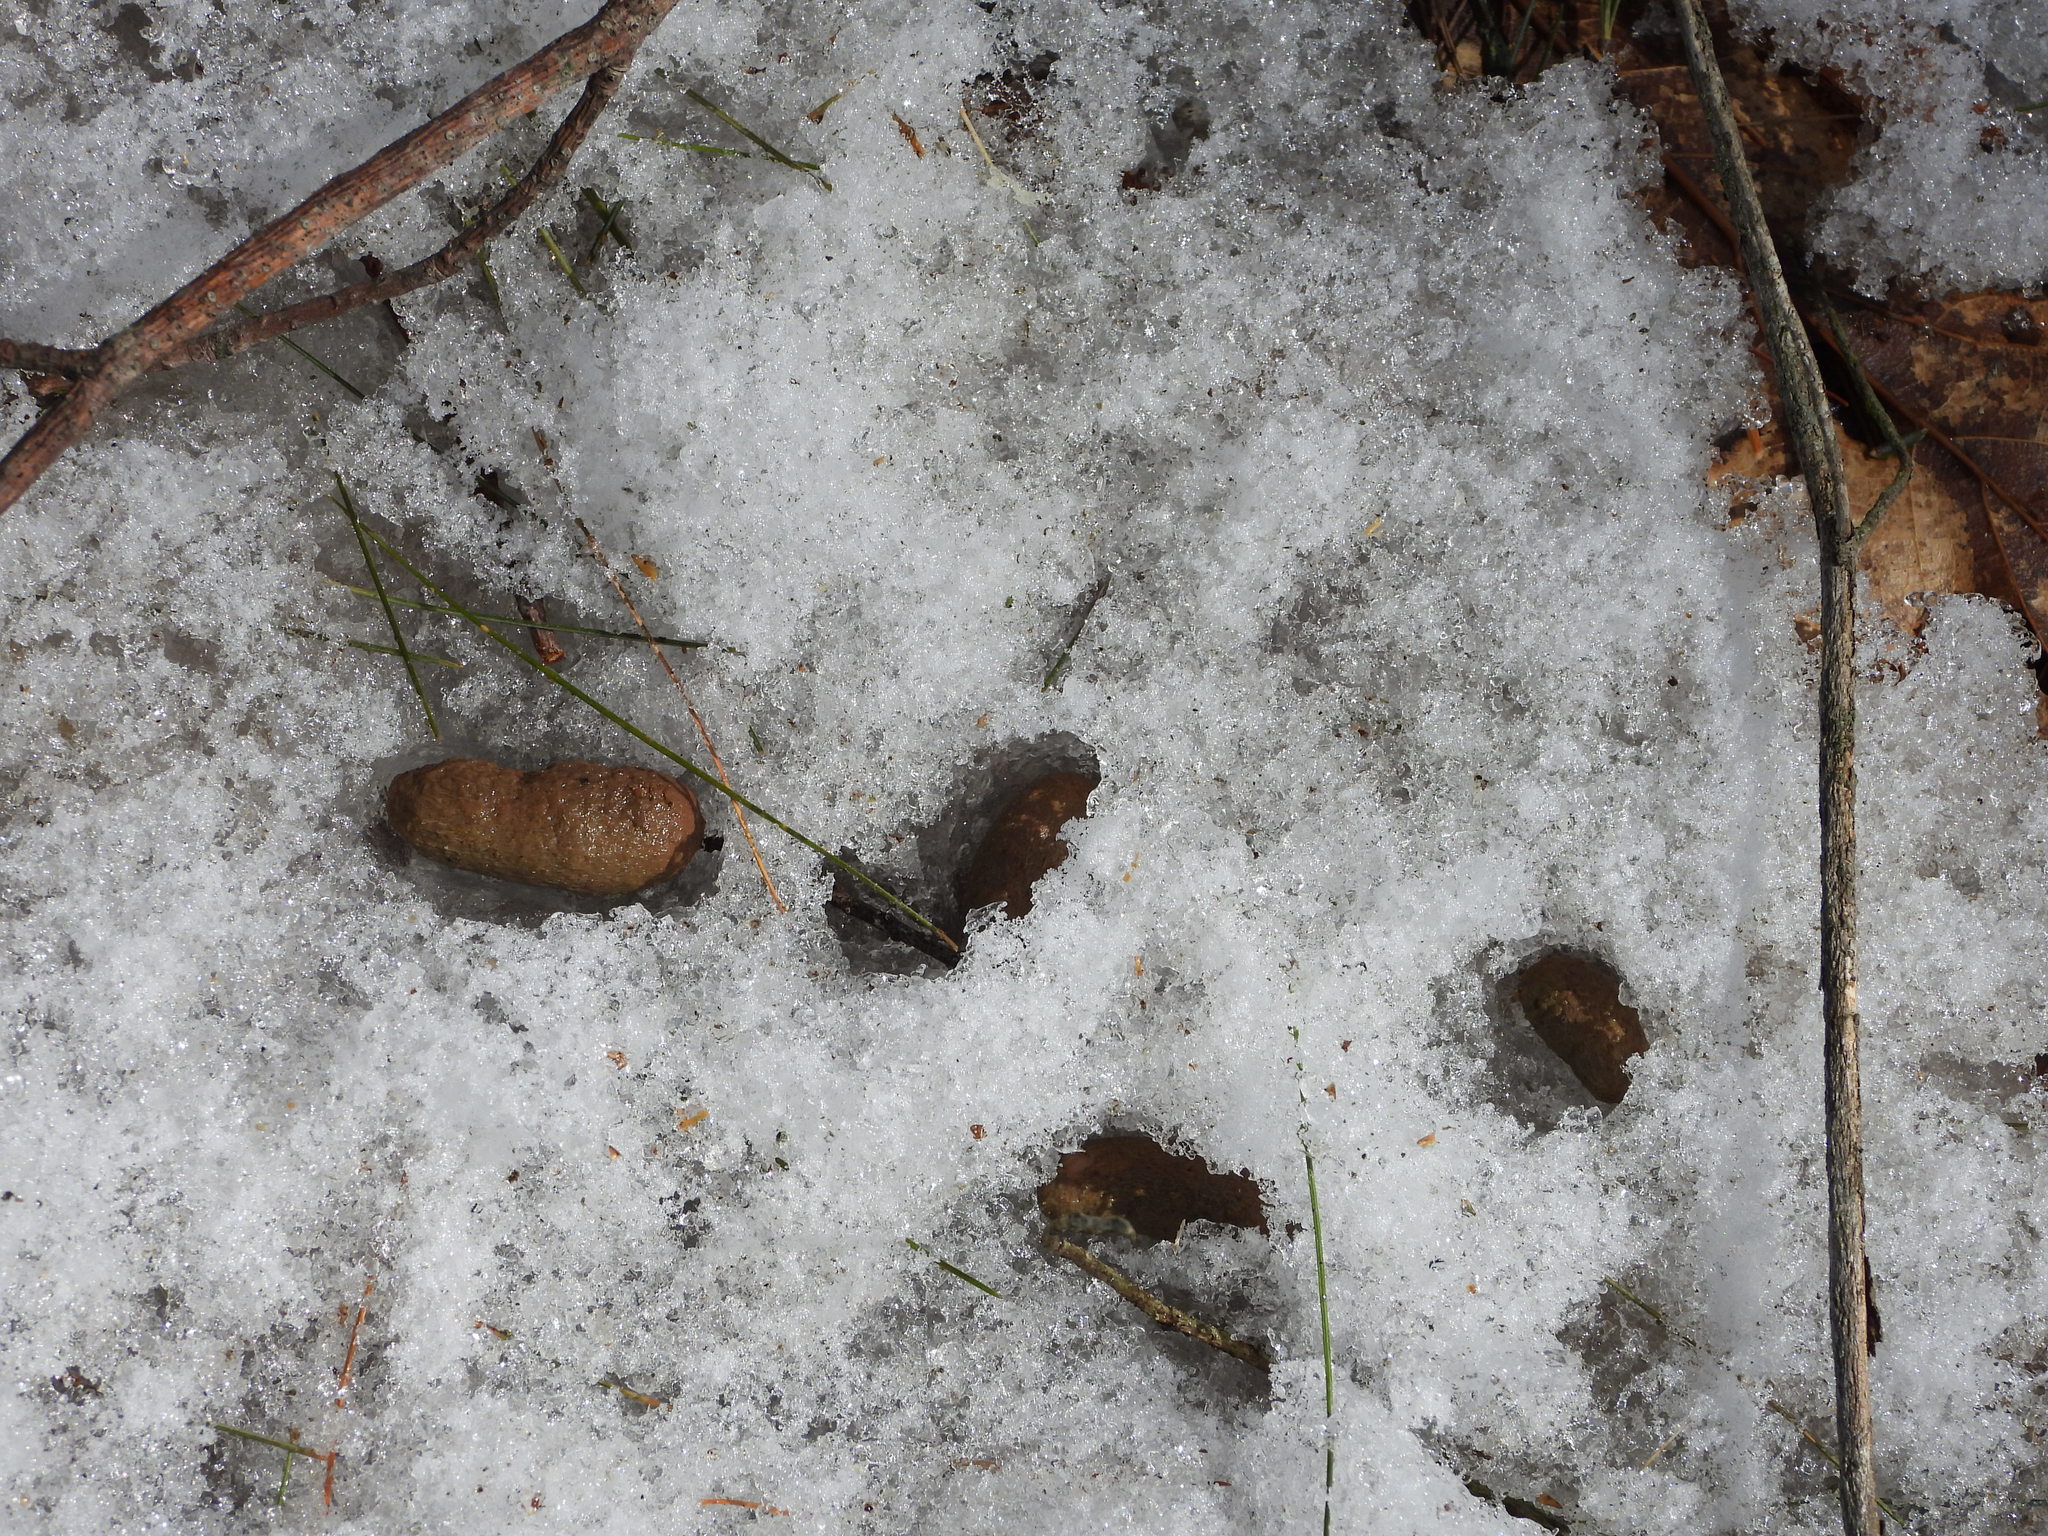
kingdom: Animalia
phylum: Chordata
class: Mammalia
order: Rodentia
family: Erethizontidae
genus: Erethizon
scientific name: Erethizon dorsatus
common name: North american porcupine
